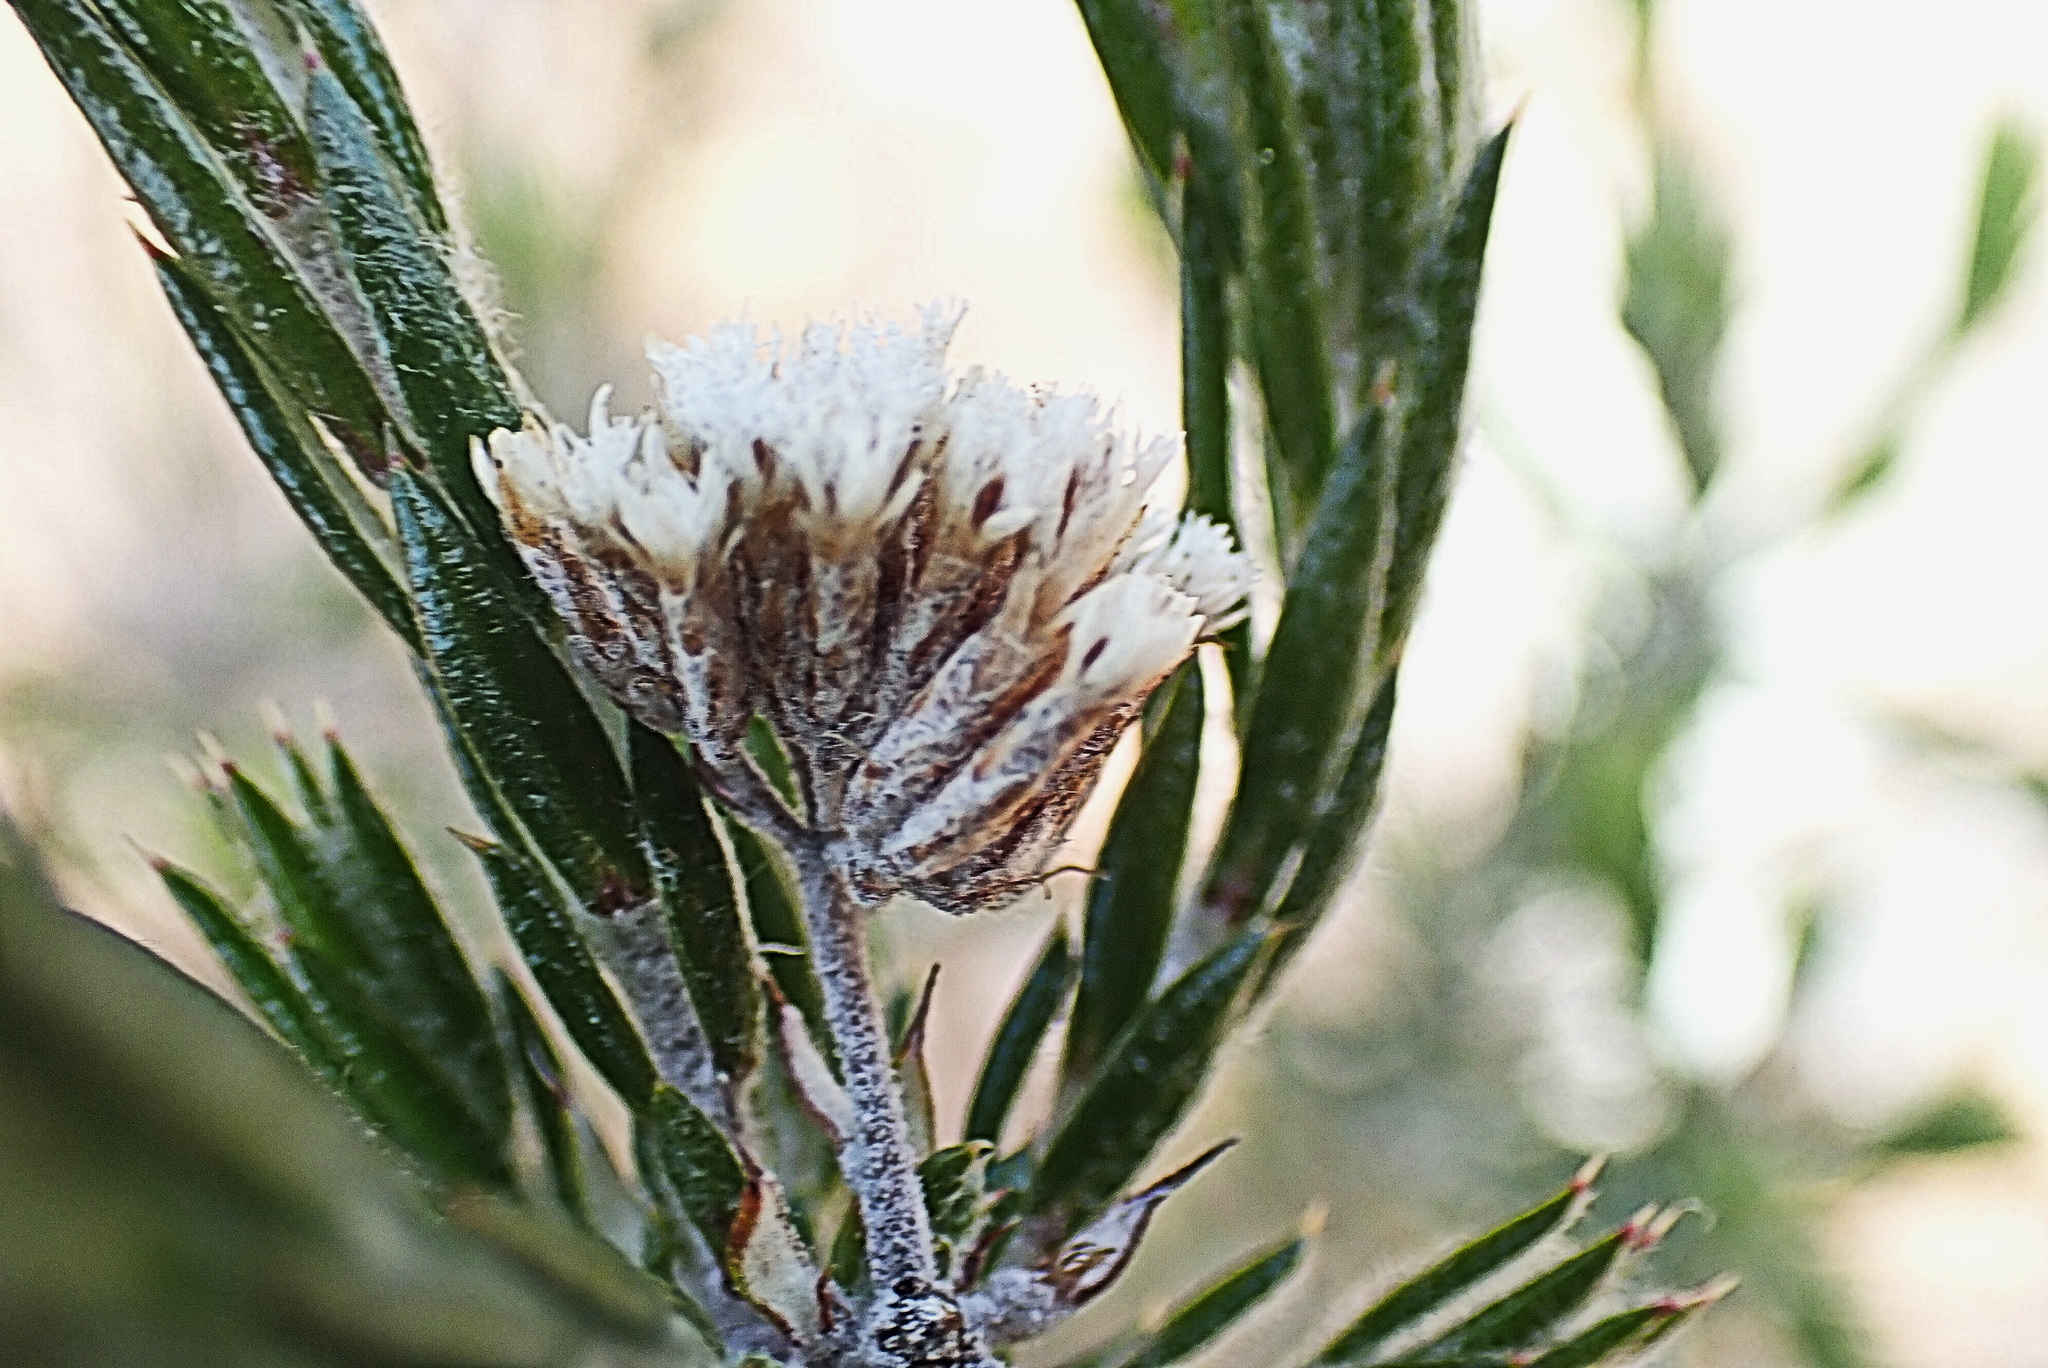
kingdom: Plantae
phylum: Tracheophyta
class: Magnoliopsida
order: Asterales
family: Asteraceae
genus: Metalasia
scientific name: Metalasia pungens
